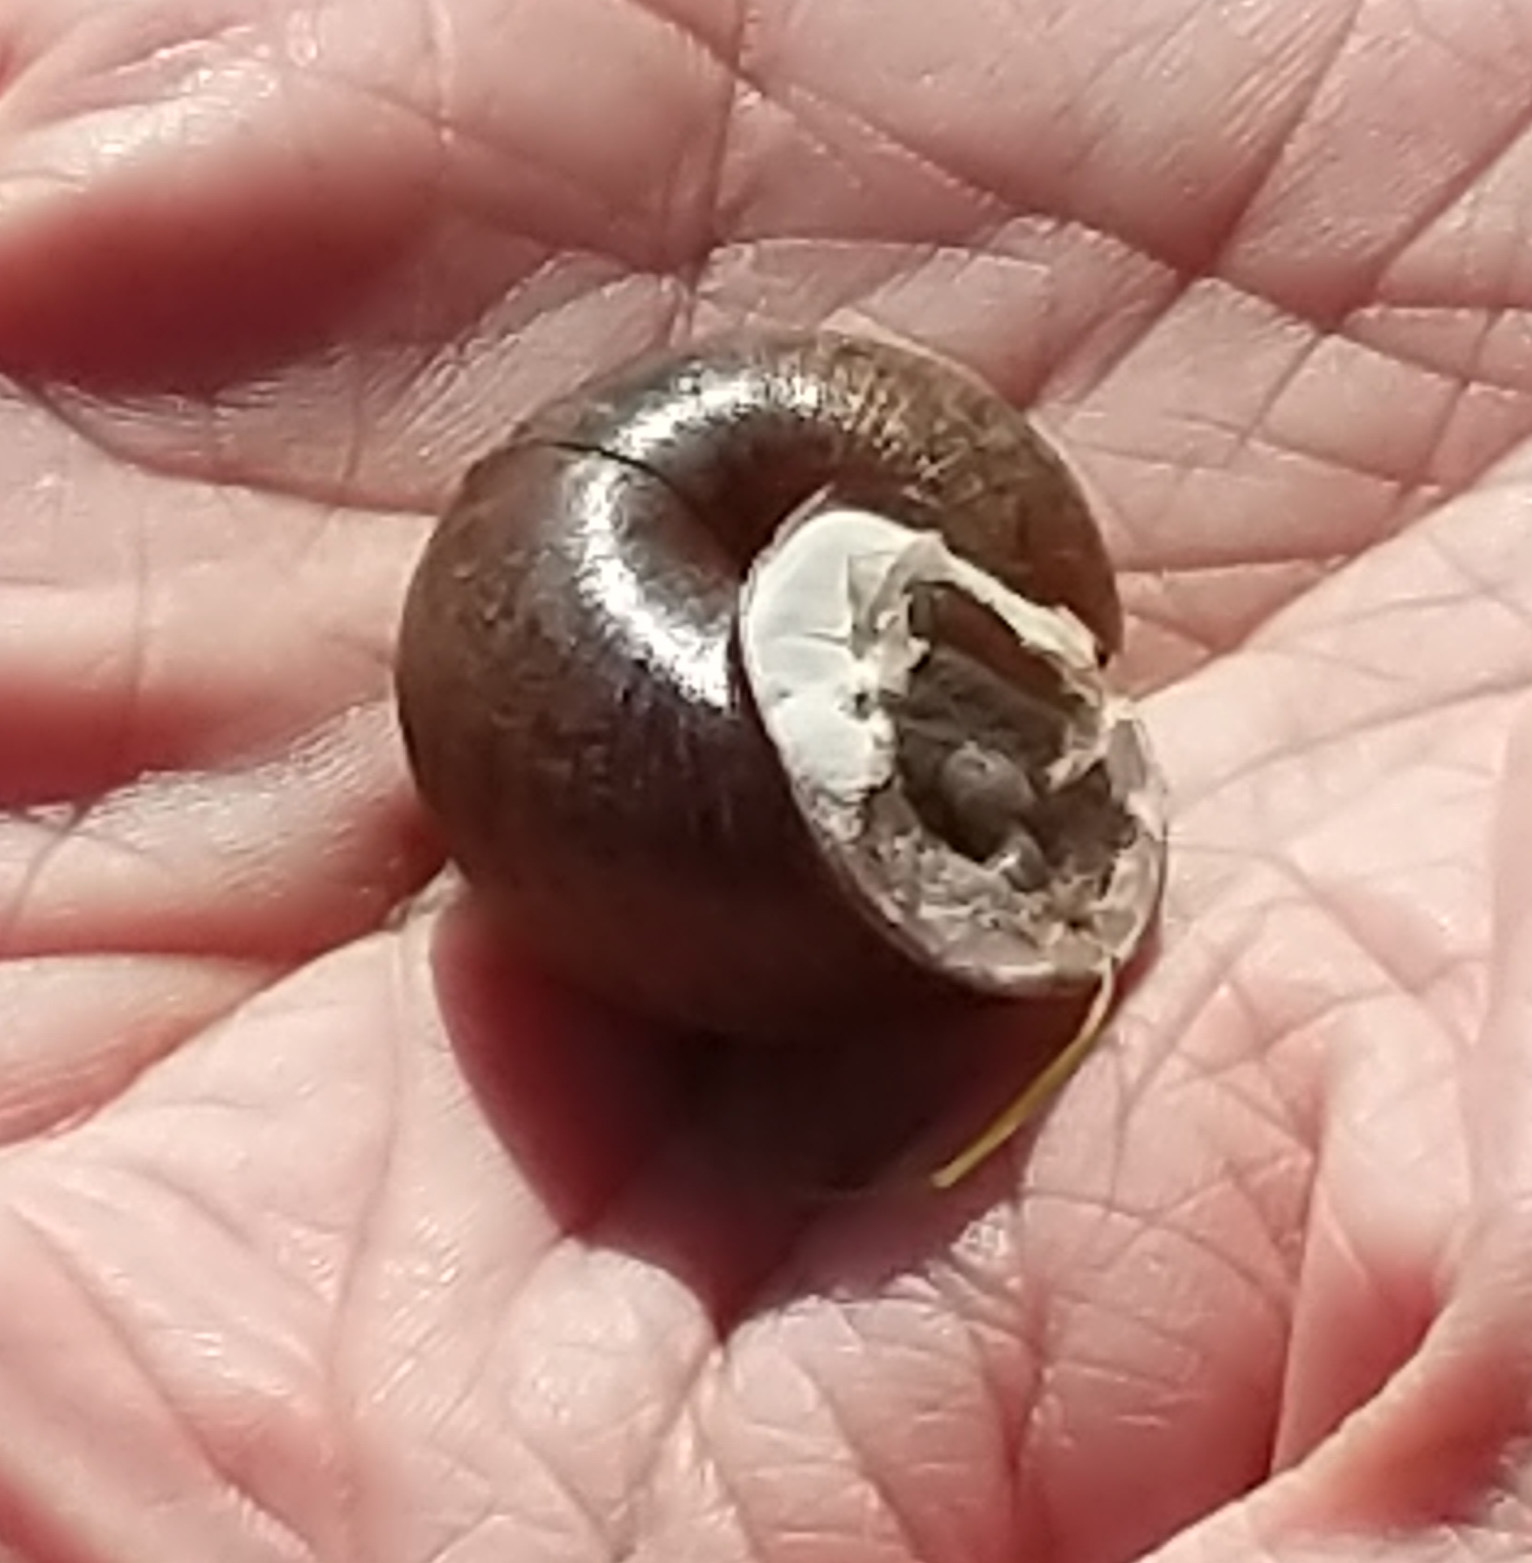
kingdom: Animalia
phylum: Mollusca
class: Gastropoda
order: Stylommatophora
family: Xanthonychidae
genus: Helminthoglypta
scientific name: Helminthoglypta nickliniana
